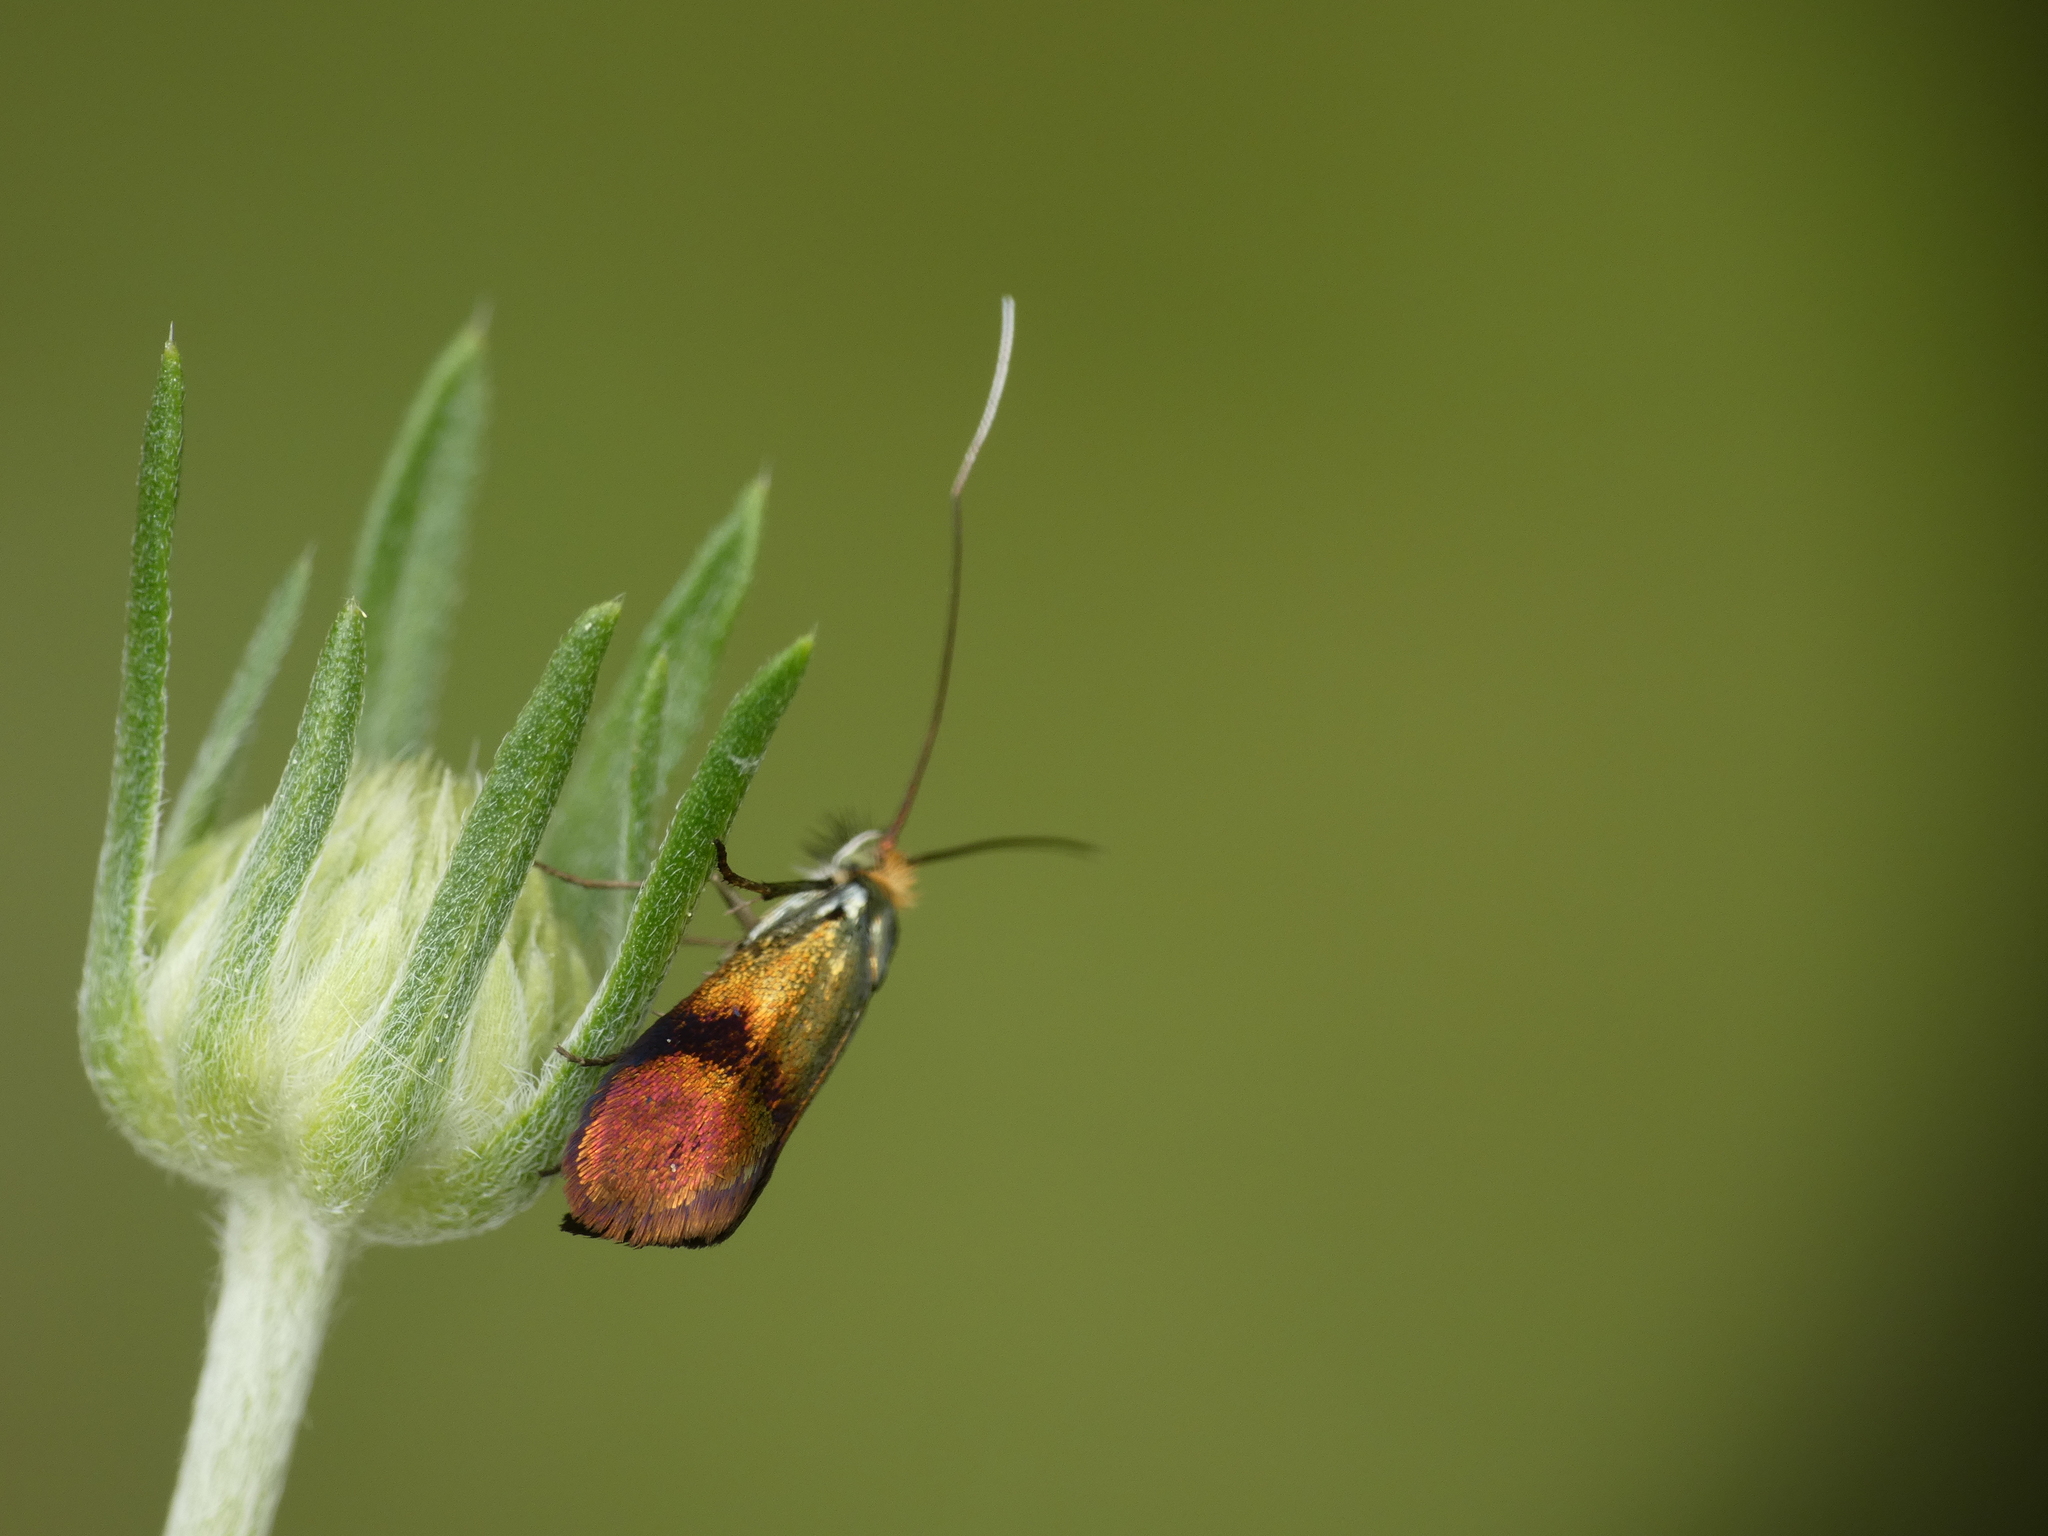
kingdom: Animalia
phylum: Arthropoda
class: Insecta
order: Lepidoptera
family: Adelidae
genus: Nemophora
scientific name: Nemophora barbatella
